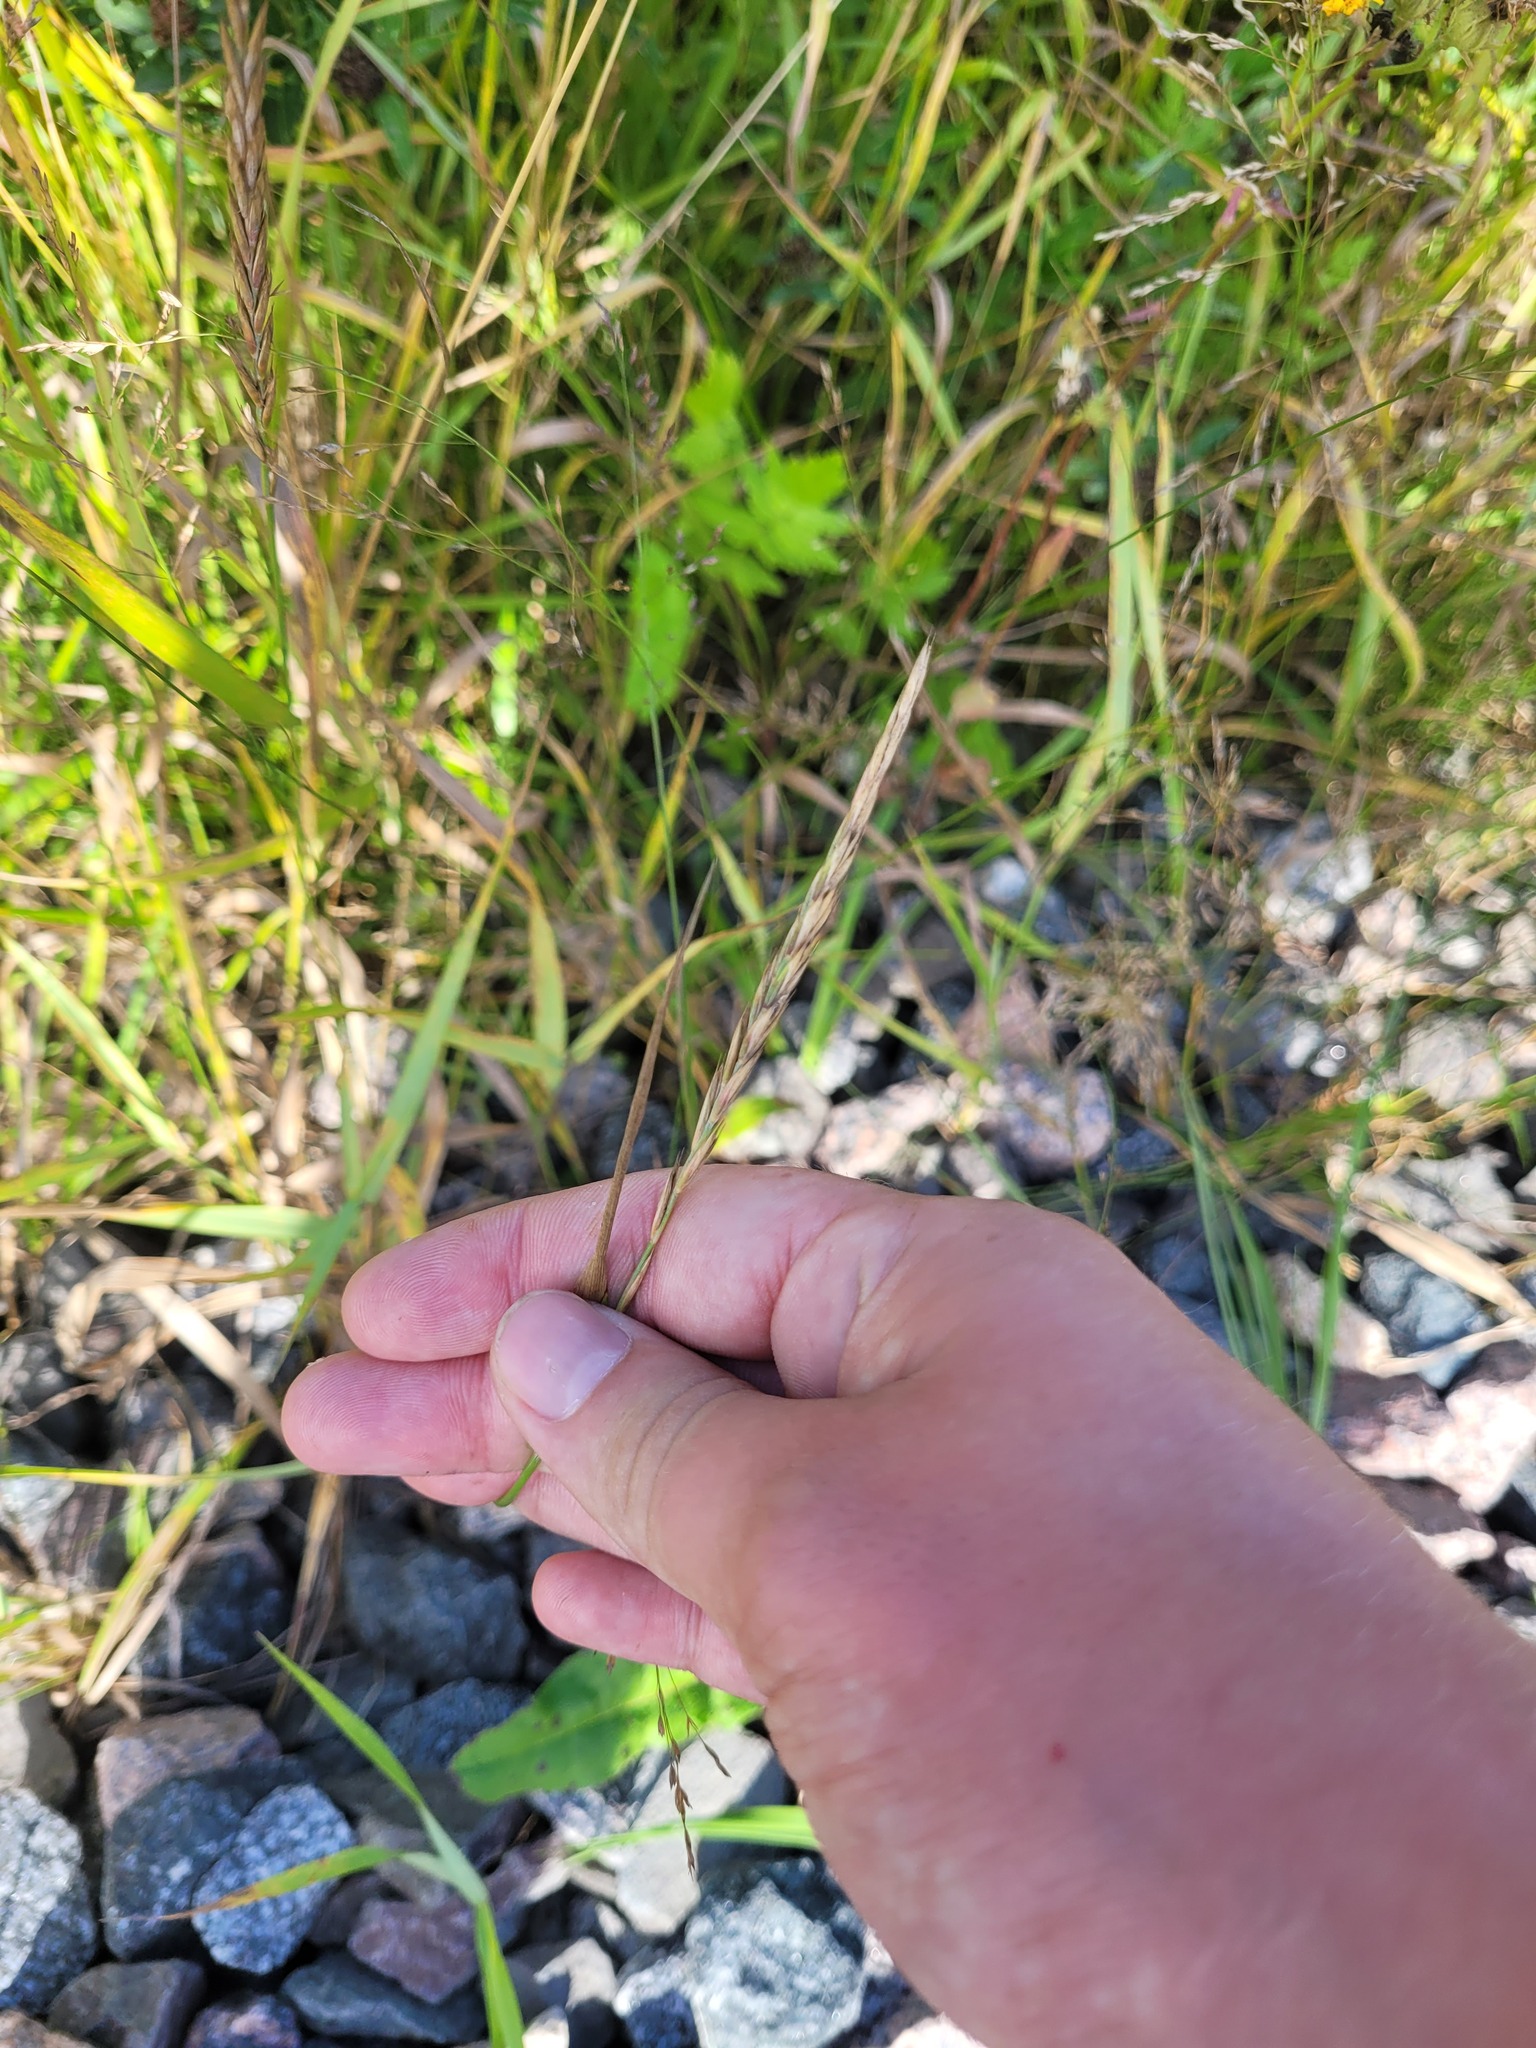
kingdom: Plantae
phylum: Tracheophyta
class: Liliopsida
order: Poales
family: Poaceae
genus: Elymus
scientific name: Elymus repens
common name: Quackgrass
